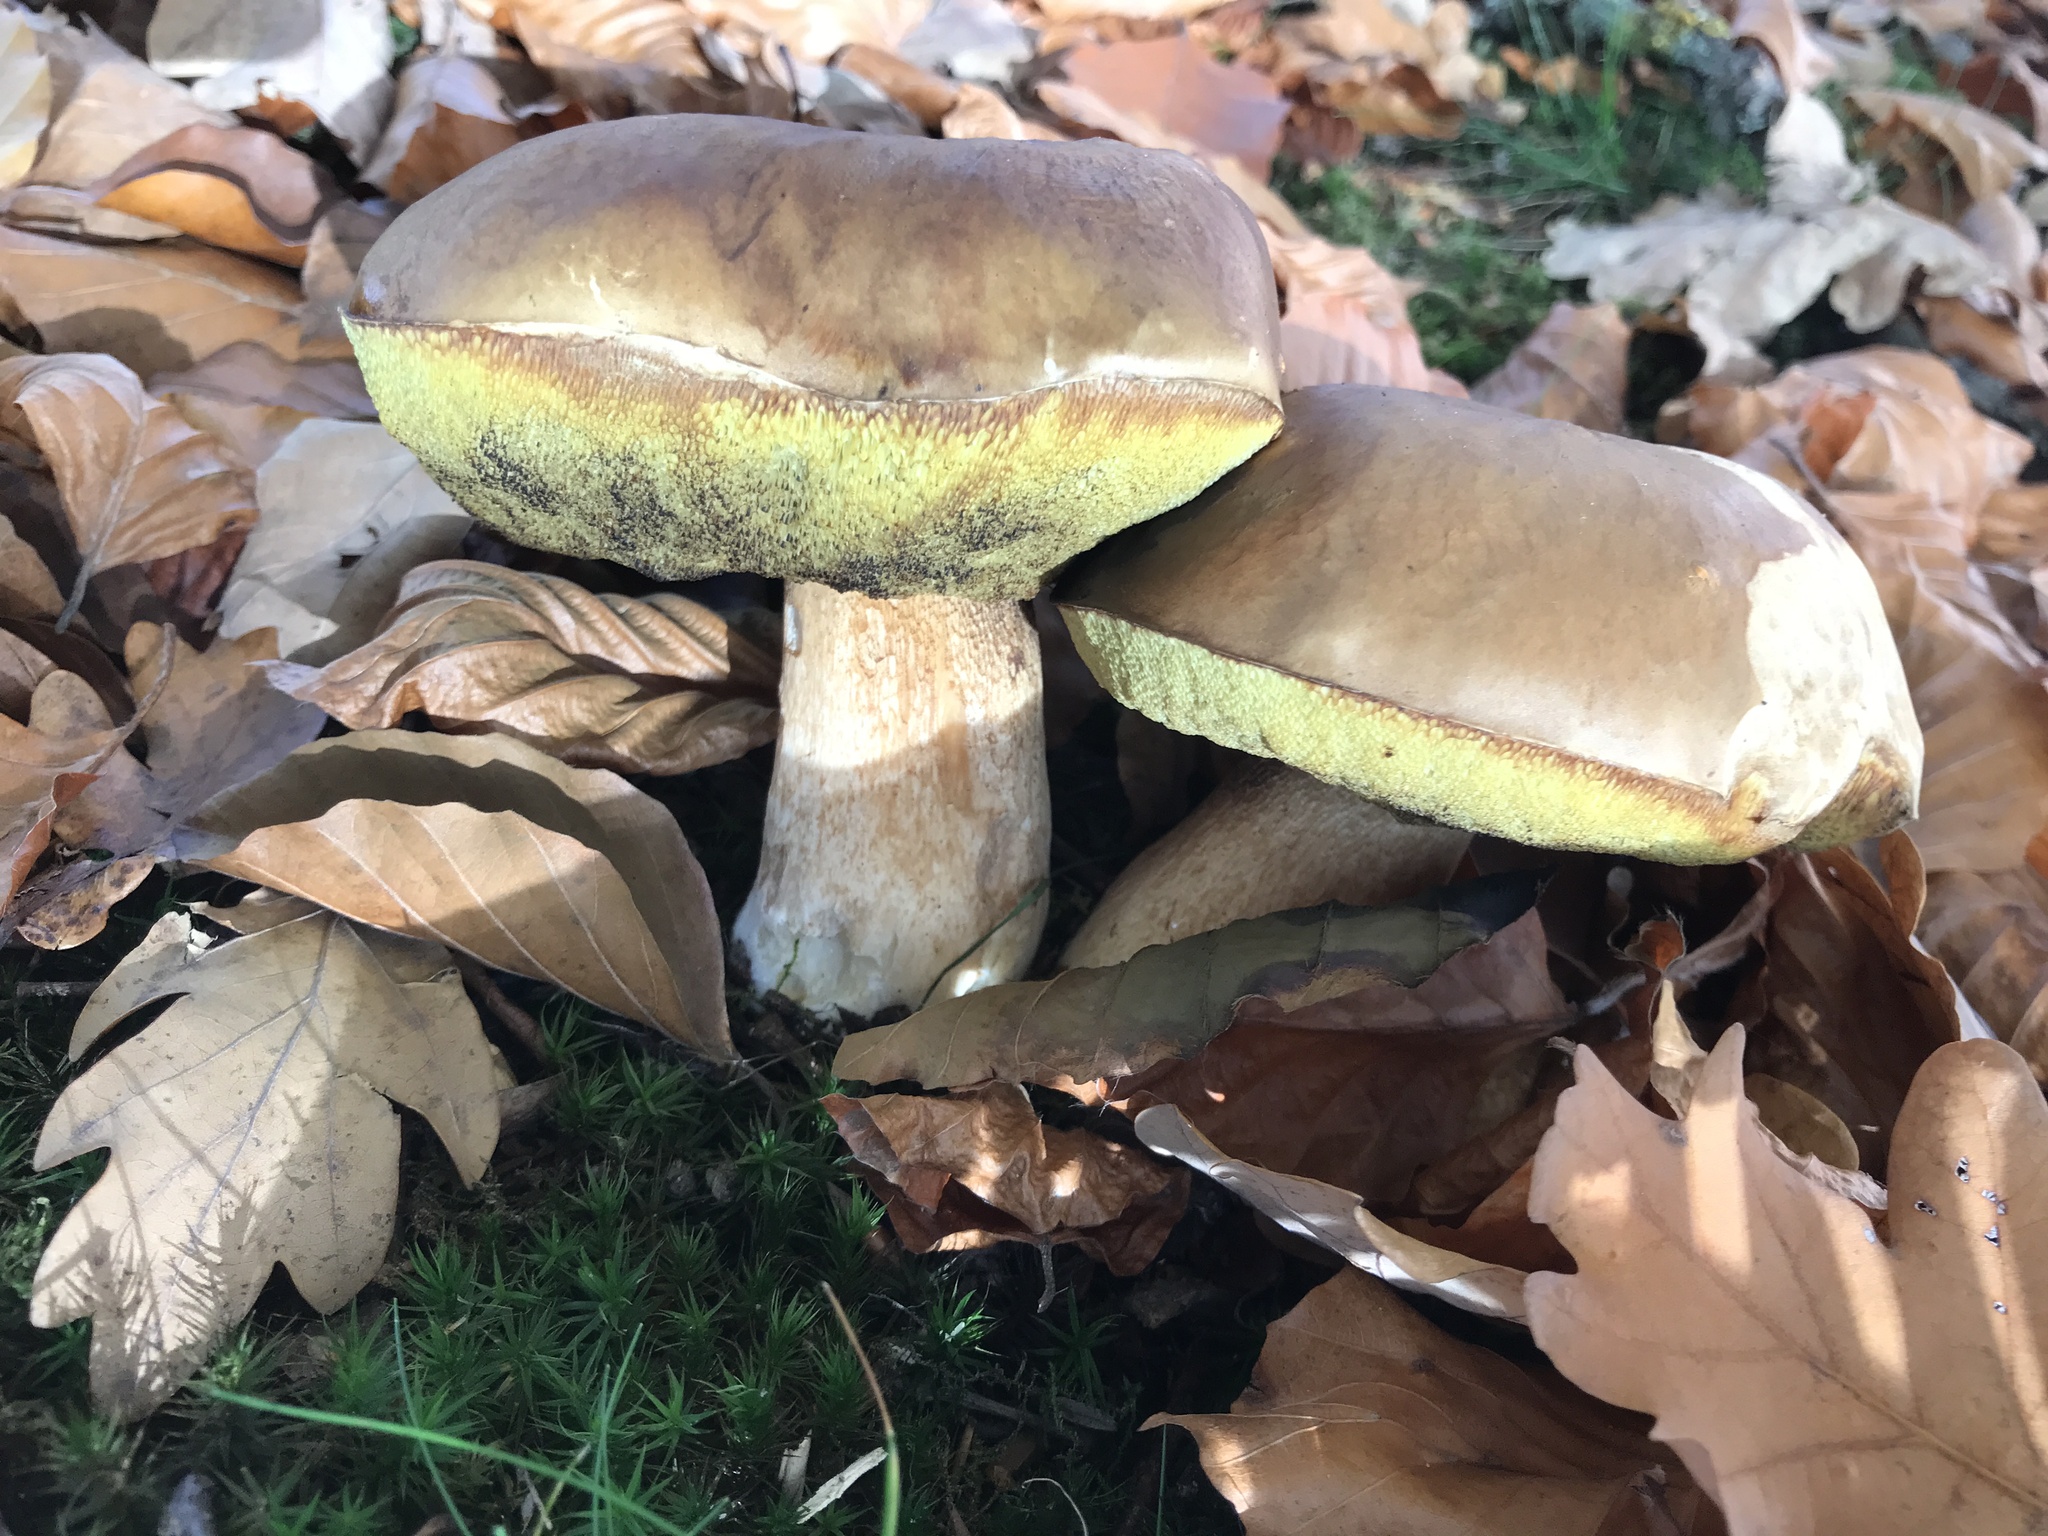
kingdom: Fungi
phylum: Basidiomycota
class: Agaricomycetes
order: Boletales
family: Boletaceae
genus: Boletus
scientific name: Boletus edulis
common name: Cep
